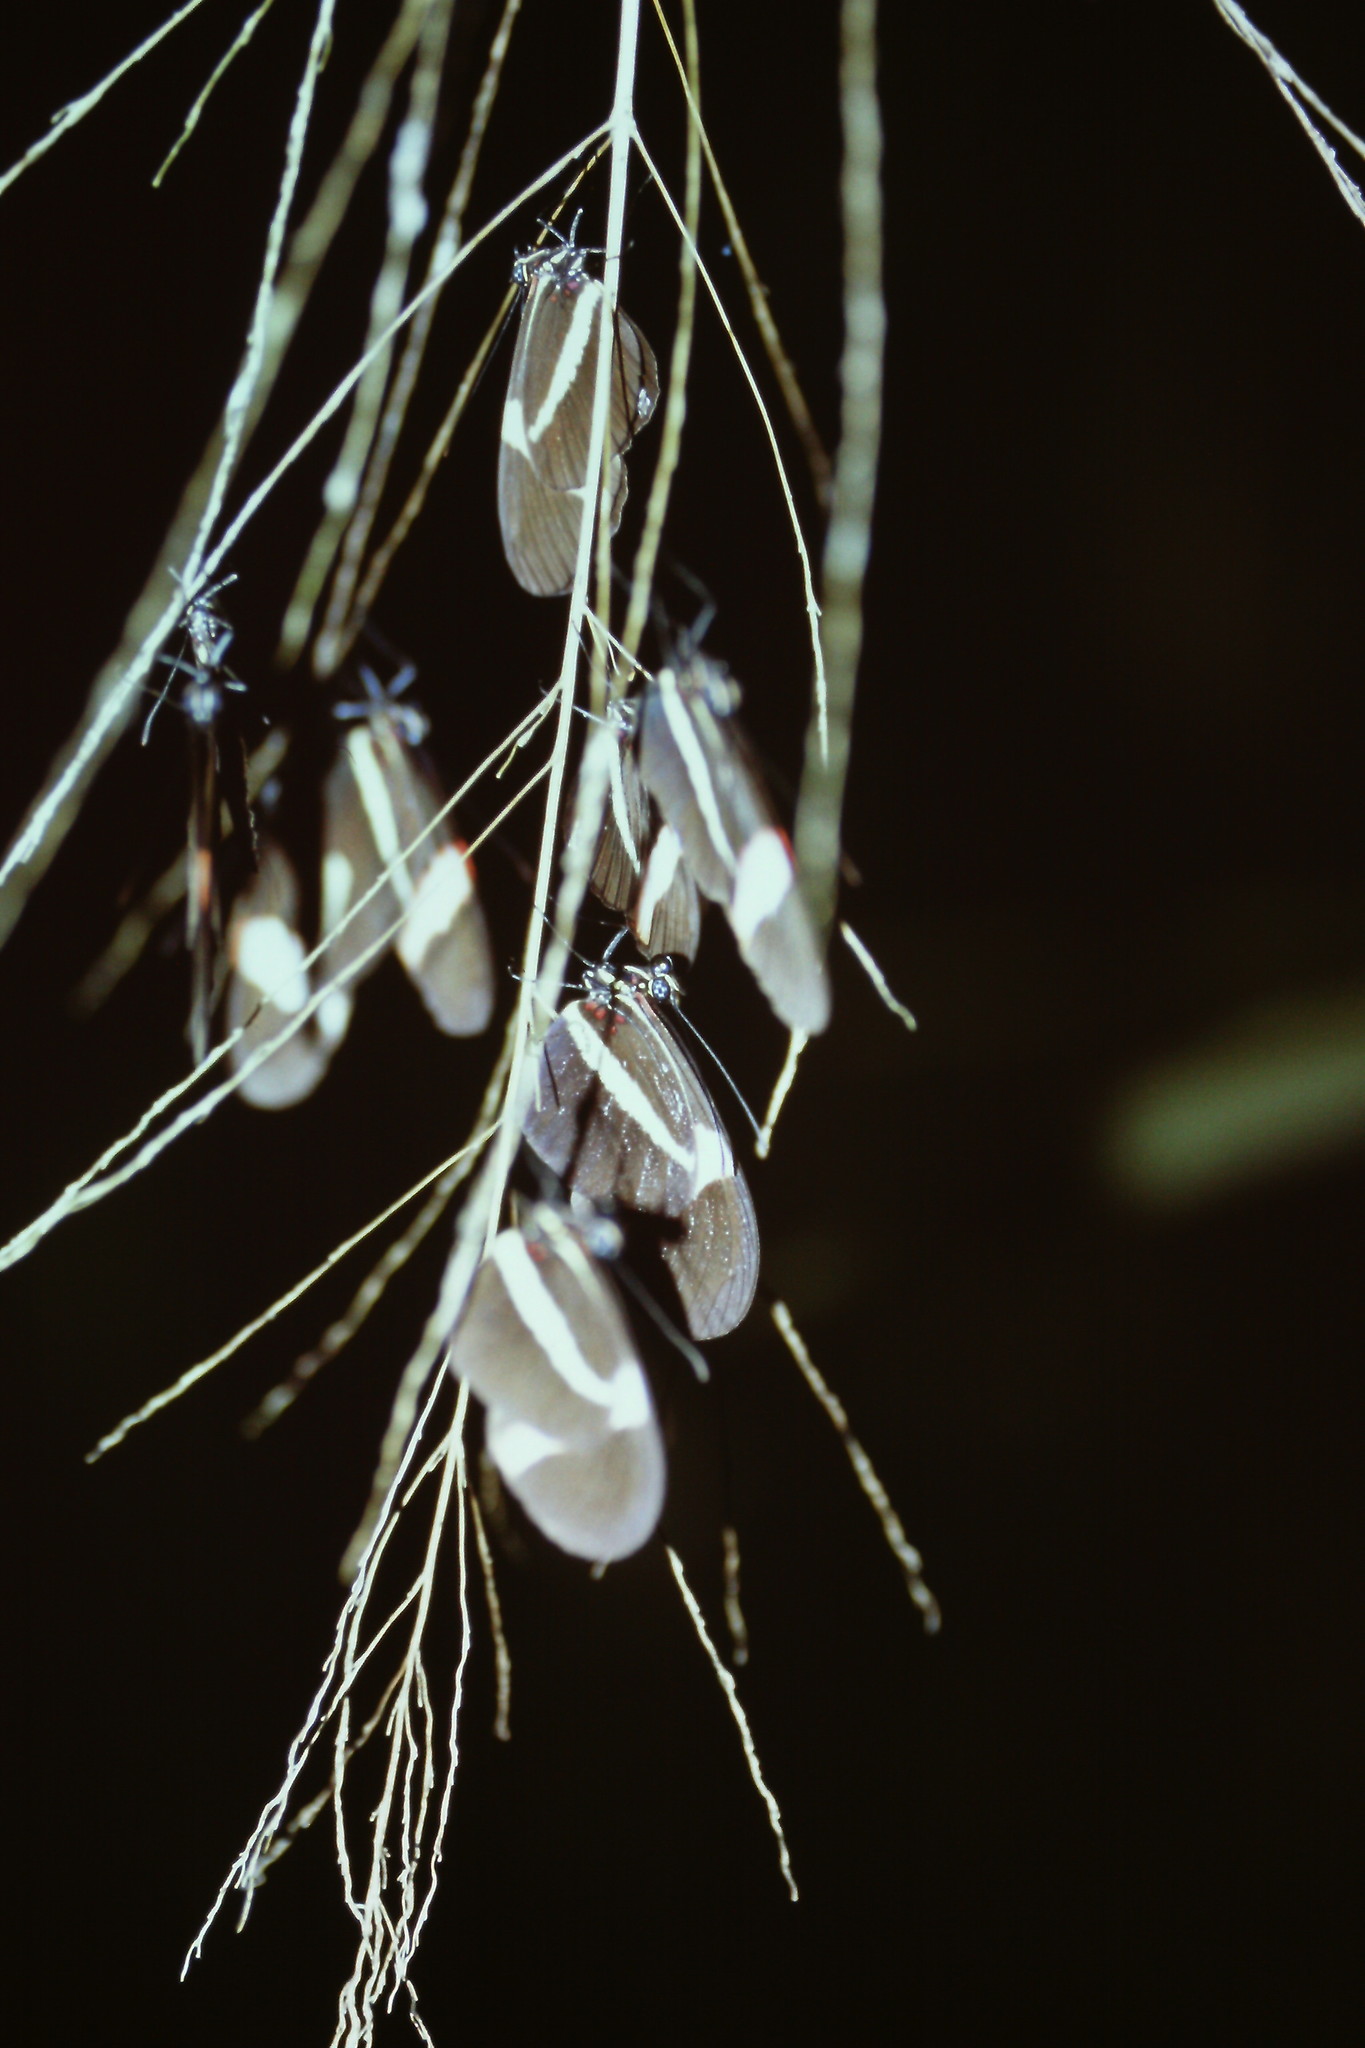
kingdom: Animalia
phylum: Arthropoda
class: Insecta
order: Lepidoptera
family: Nymphalidae
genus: Heliconius
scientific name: Heliconius erato
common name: Common patch longwing
